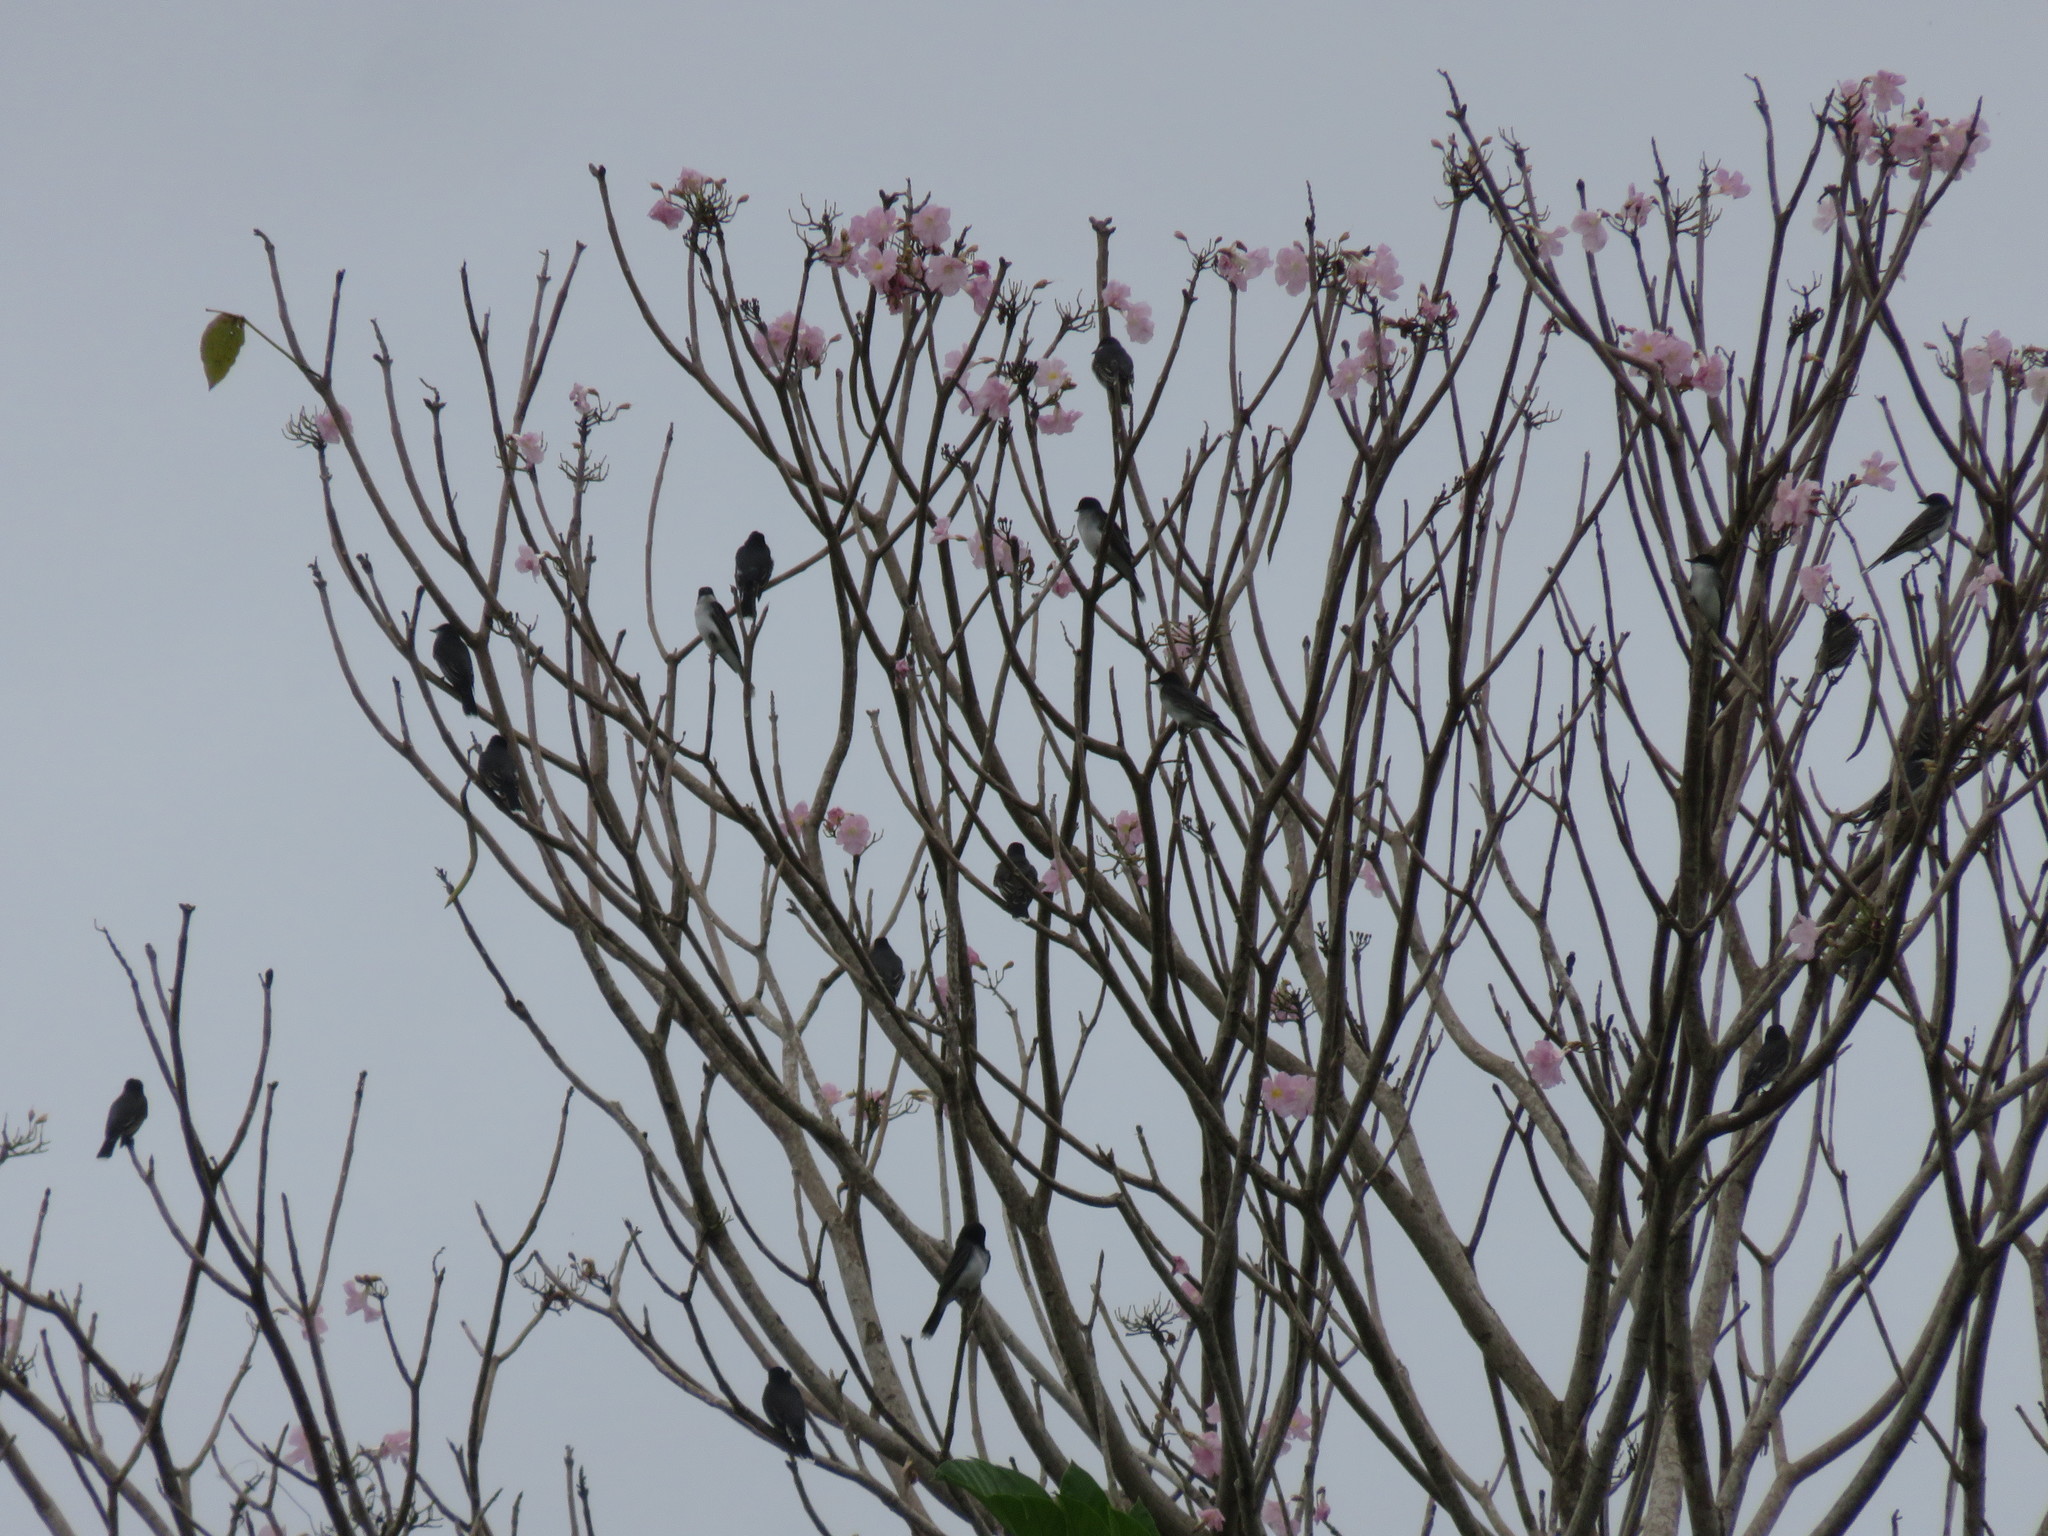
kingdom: Animalia
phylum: Chordata
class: Aves
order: Passeriformes
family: Tyrannidae
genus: Tyrannus
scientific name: Tyrannus tyrannus
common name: Eastern kingbird
